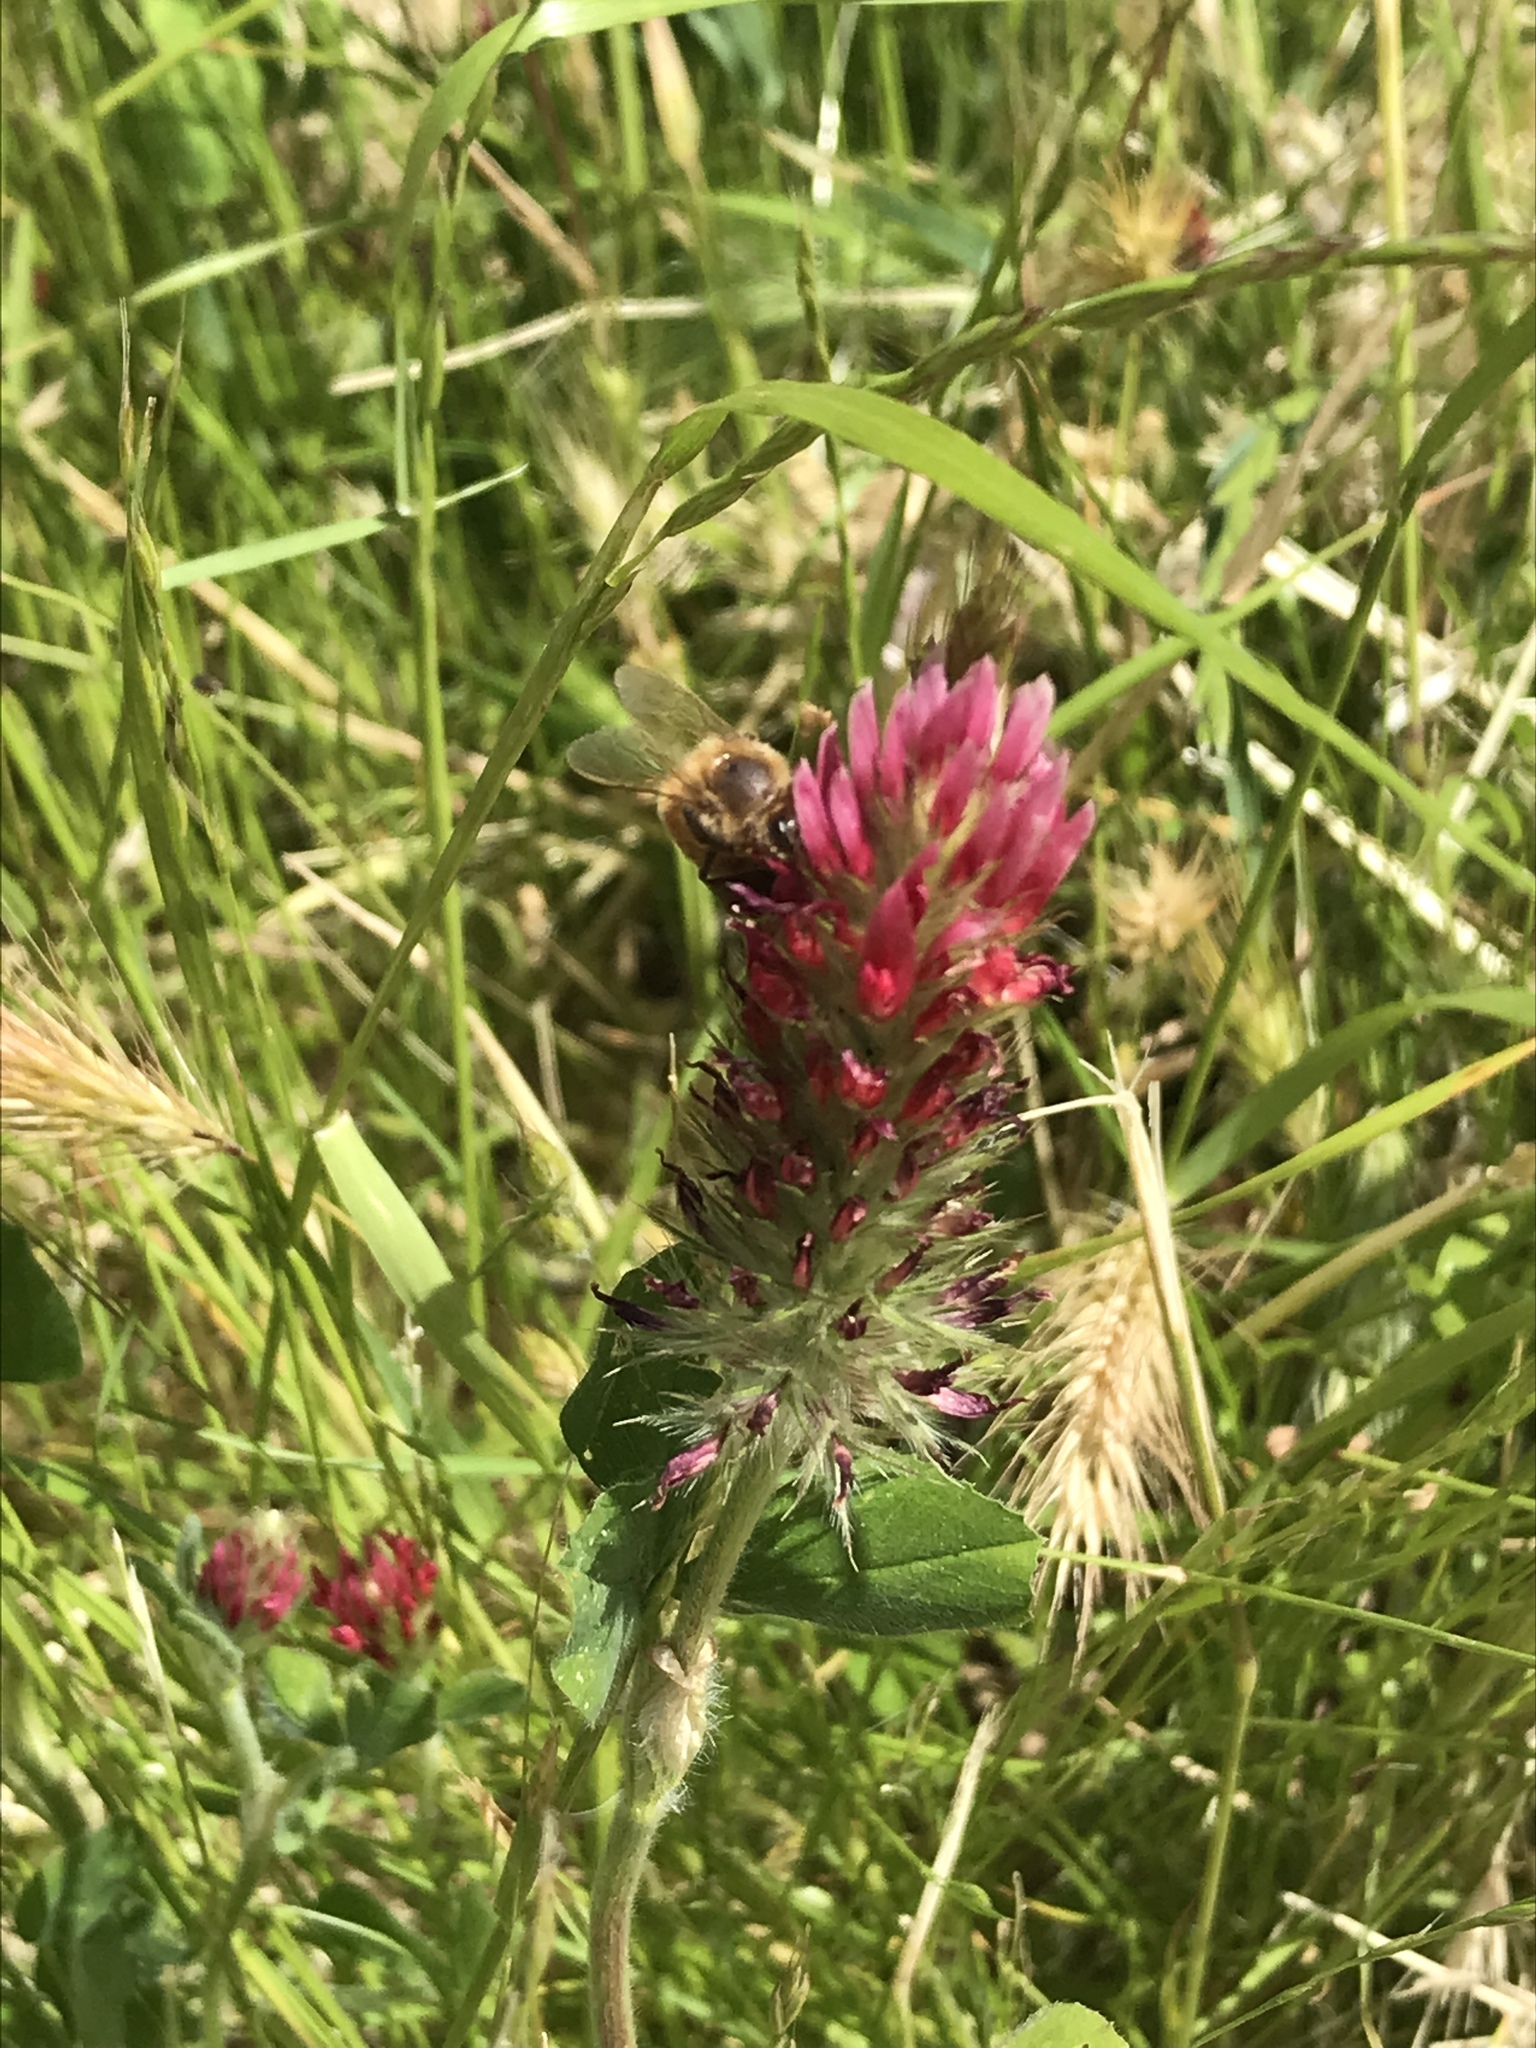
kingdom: Animalia
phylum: Arthropoda
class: Insecta
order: Hymenoptera
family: Apidae
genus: Apis
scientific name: Apis mellifera
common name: Honey bee
